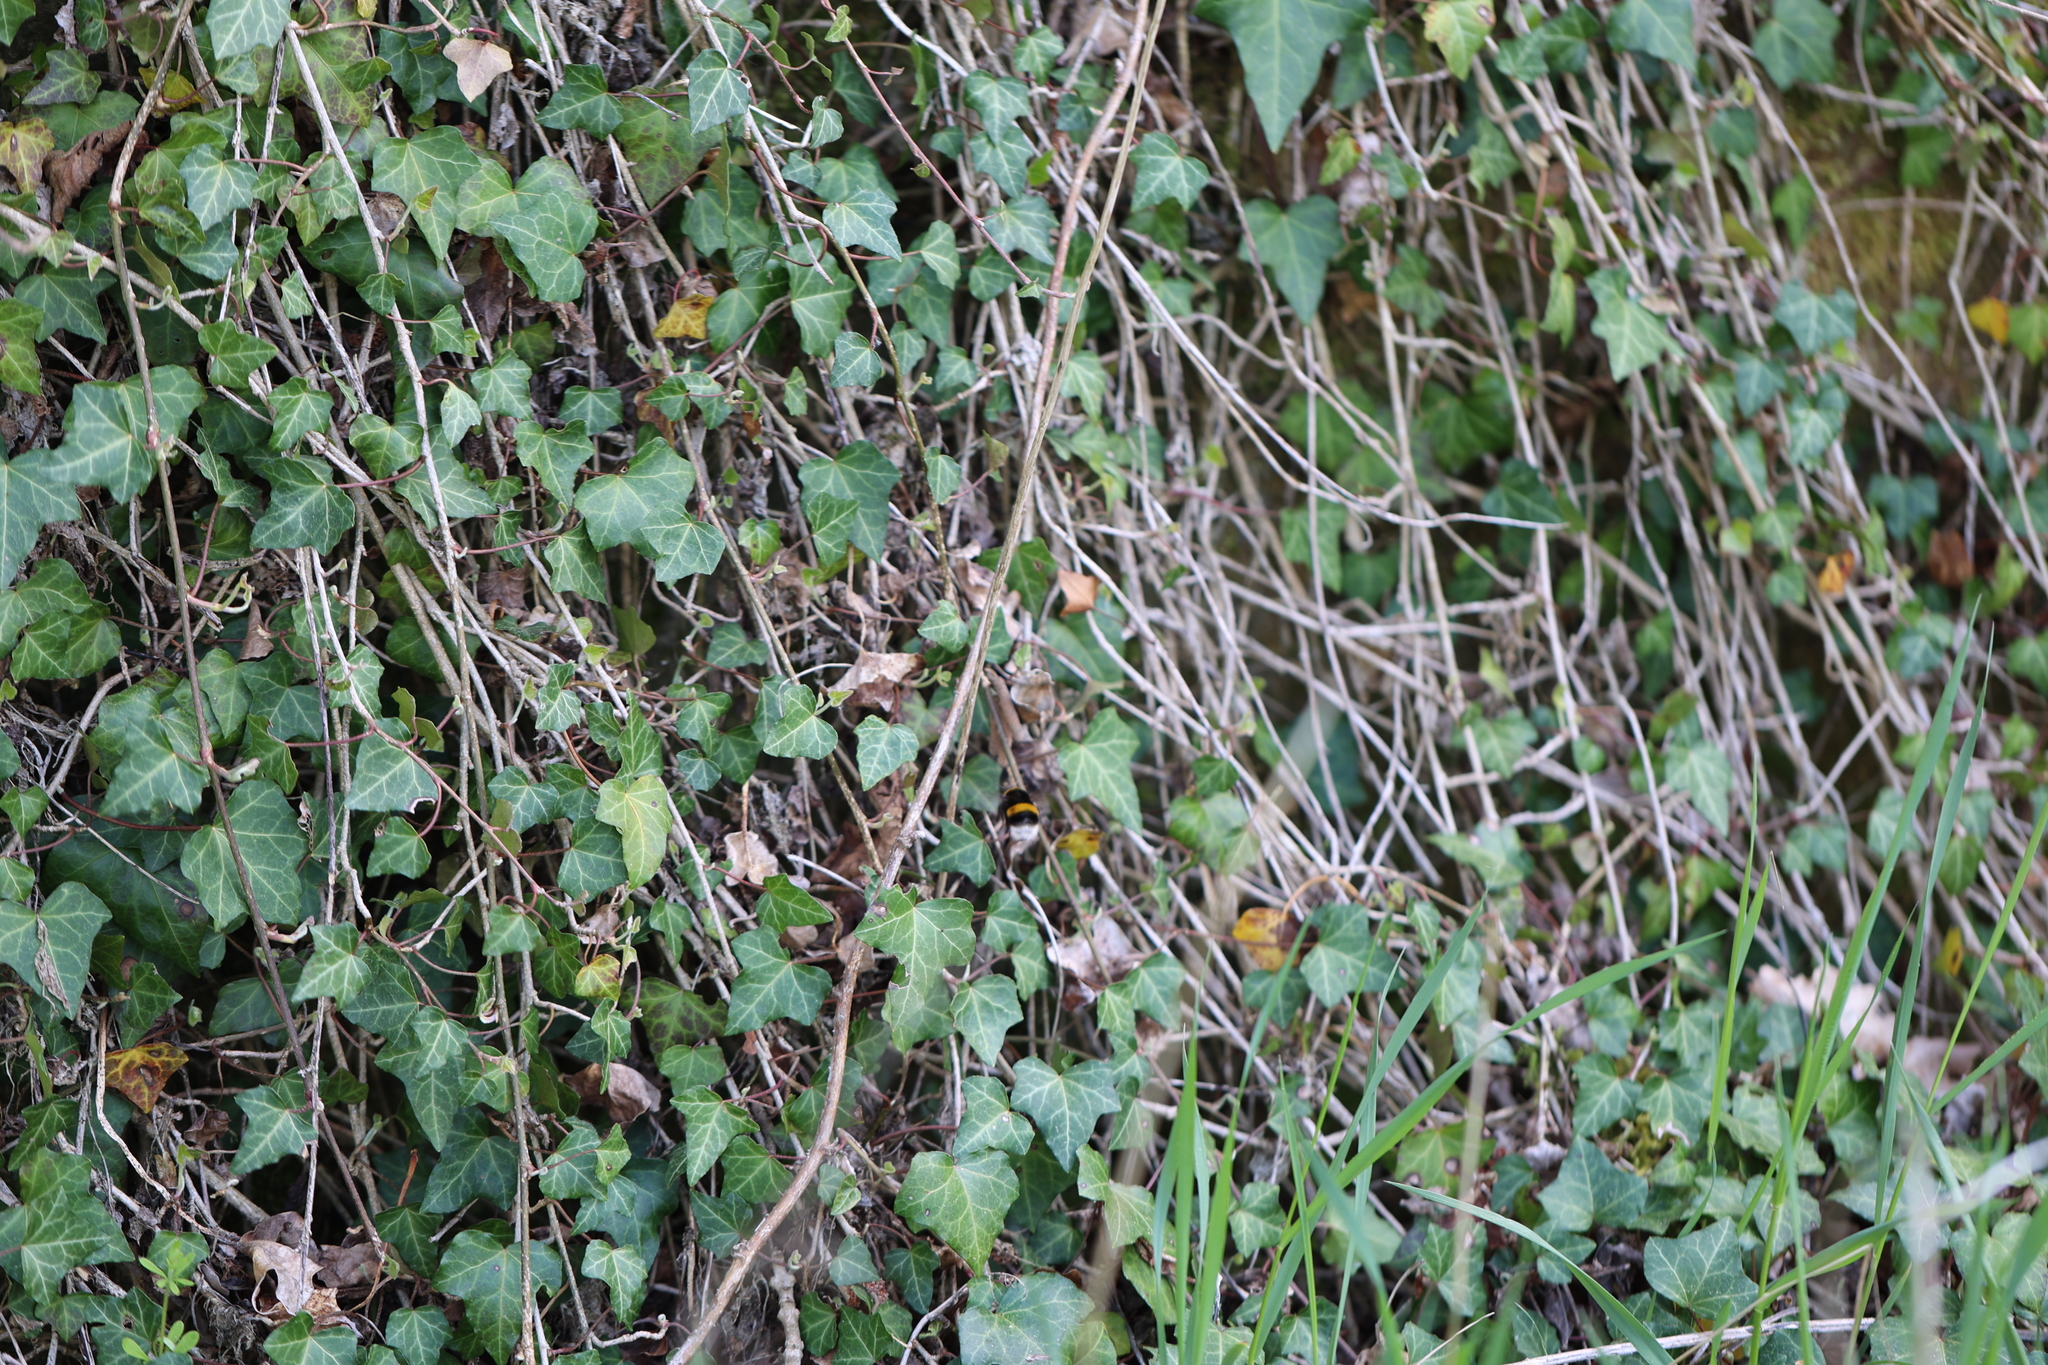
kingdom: Plantae
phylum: Tracheophyta
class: Magnoliopsida
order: Apiales
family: Araliaceae
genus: Hedera
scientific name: Hedera helix
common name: Ivy
